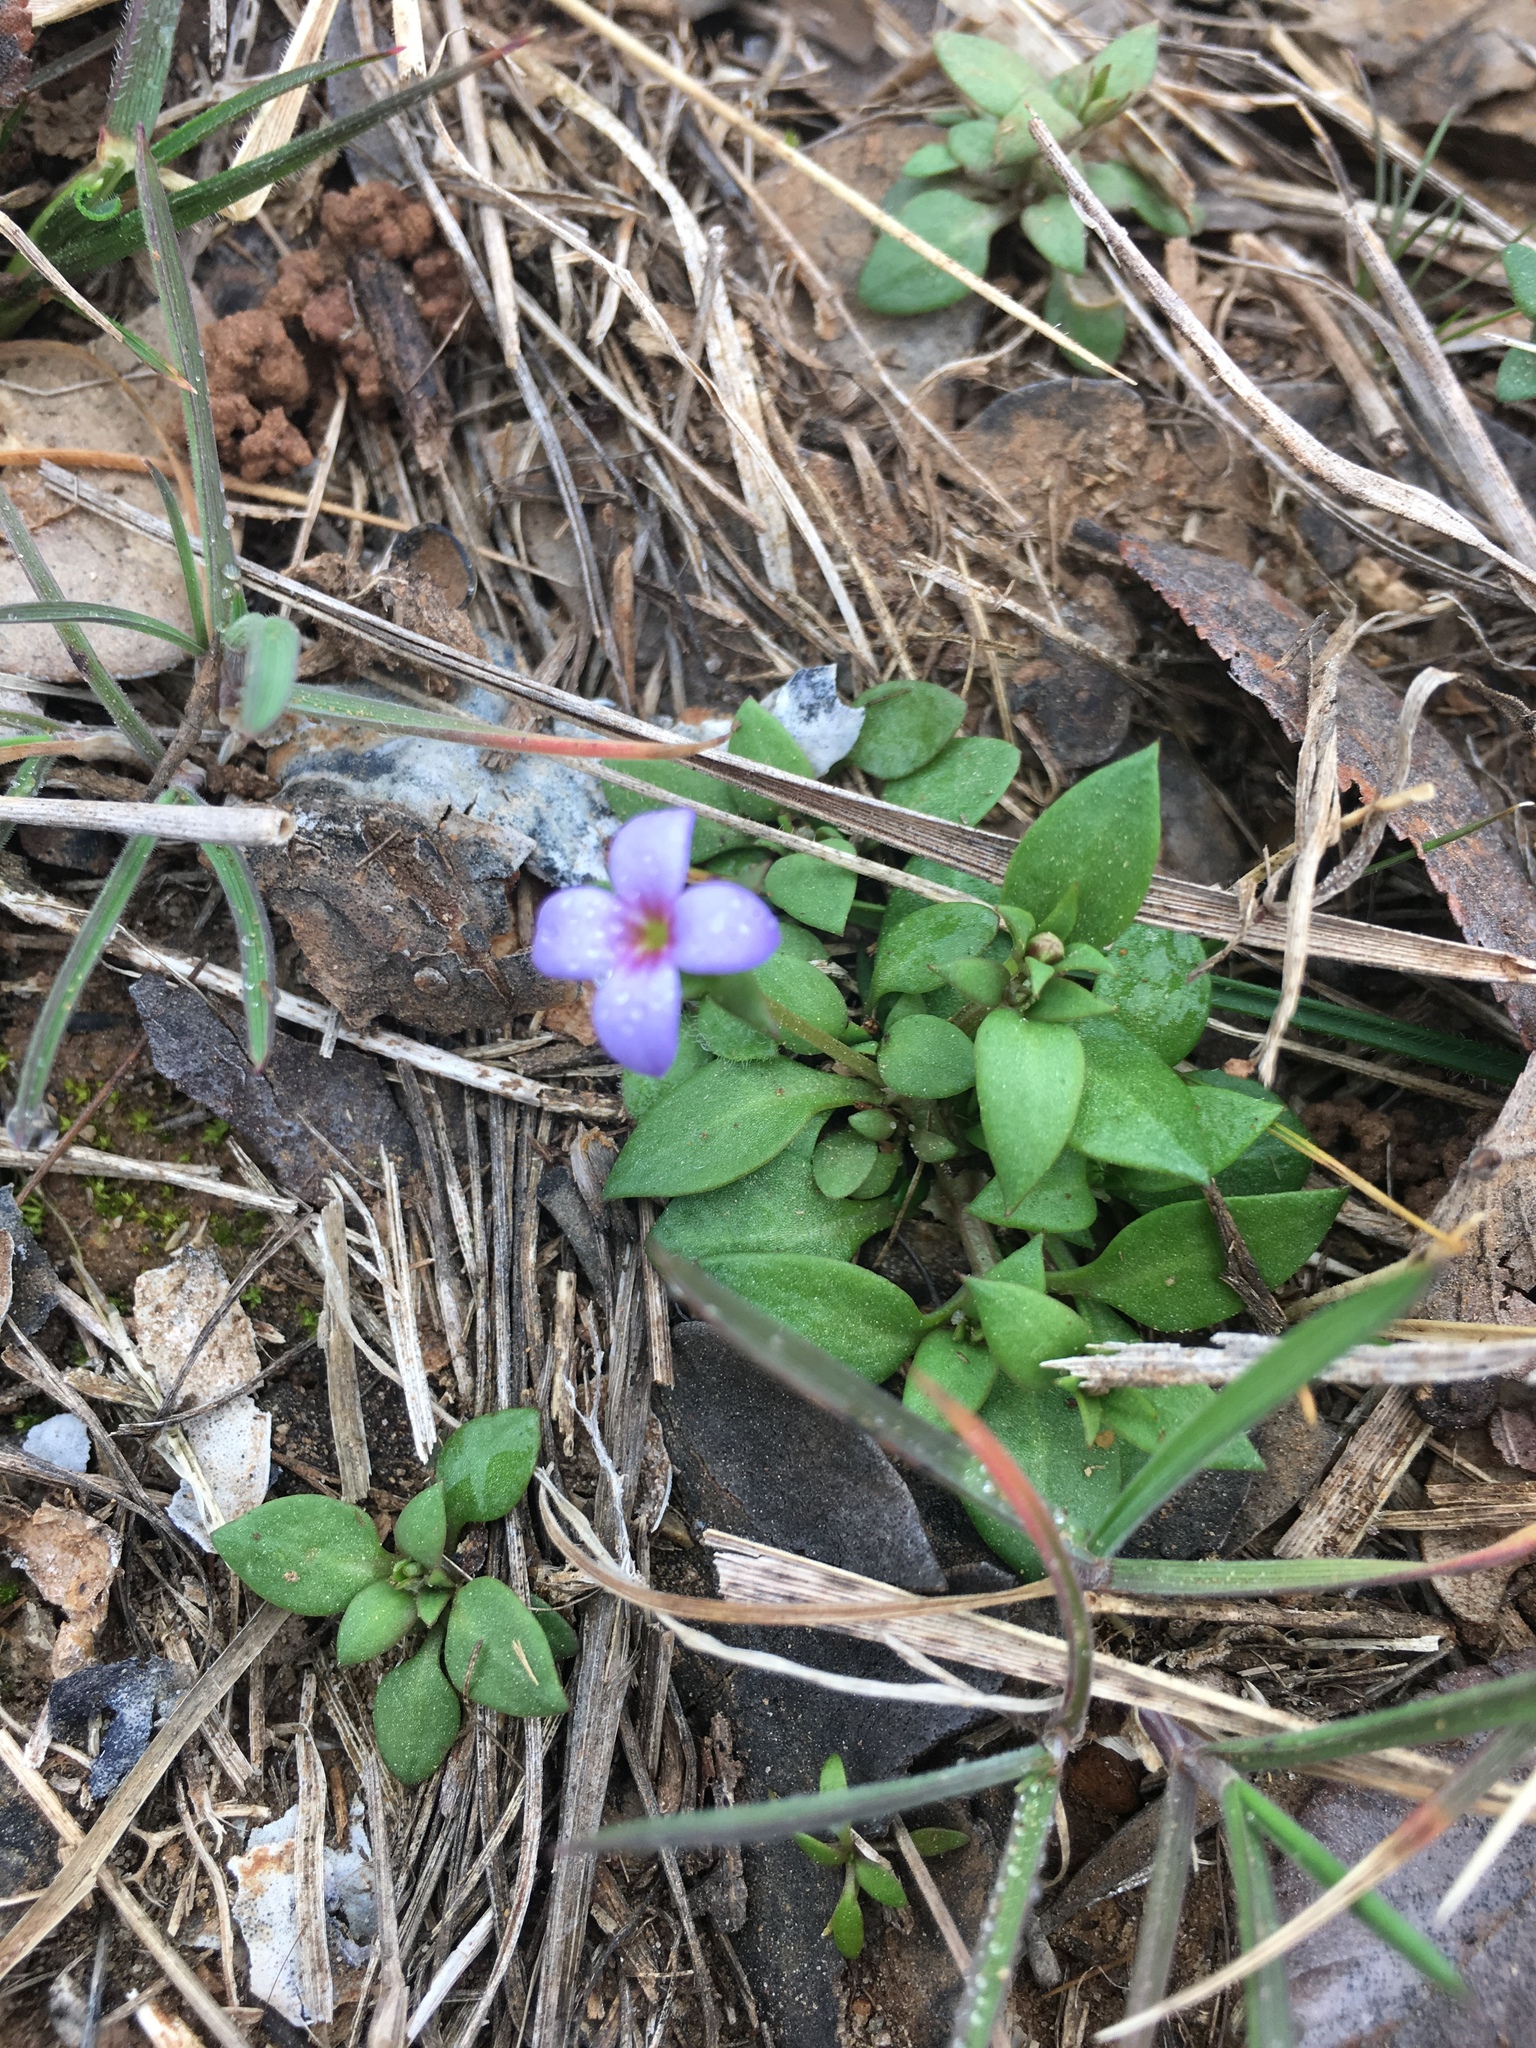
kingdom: Plantae
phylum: Tracheophyta
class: Magnoliopsida
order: Gentianales
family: Rubiaceae
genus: Houstonia
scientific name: Houstonia pusilla
